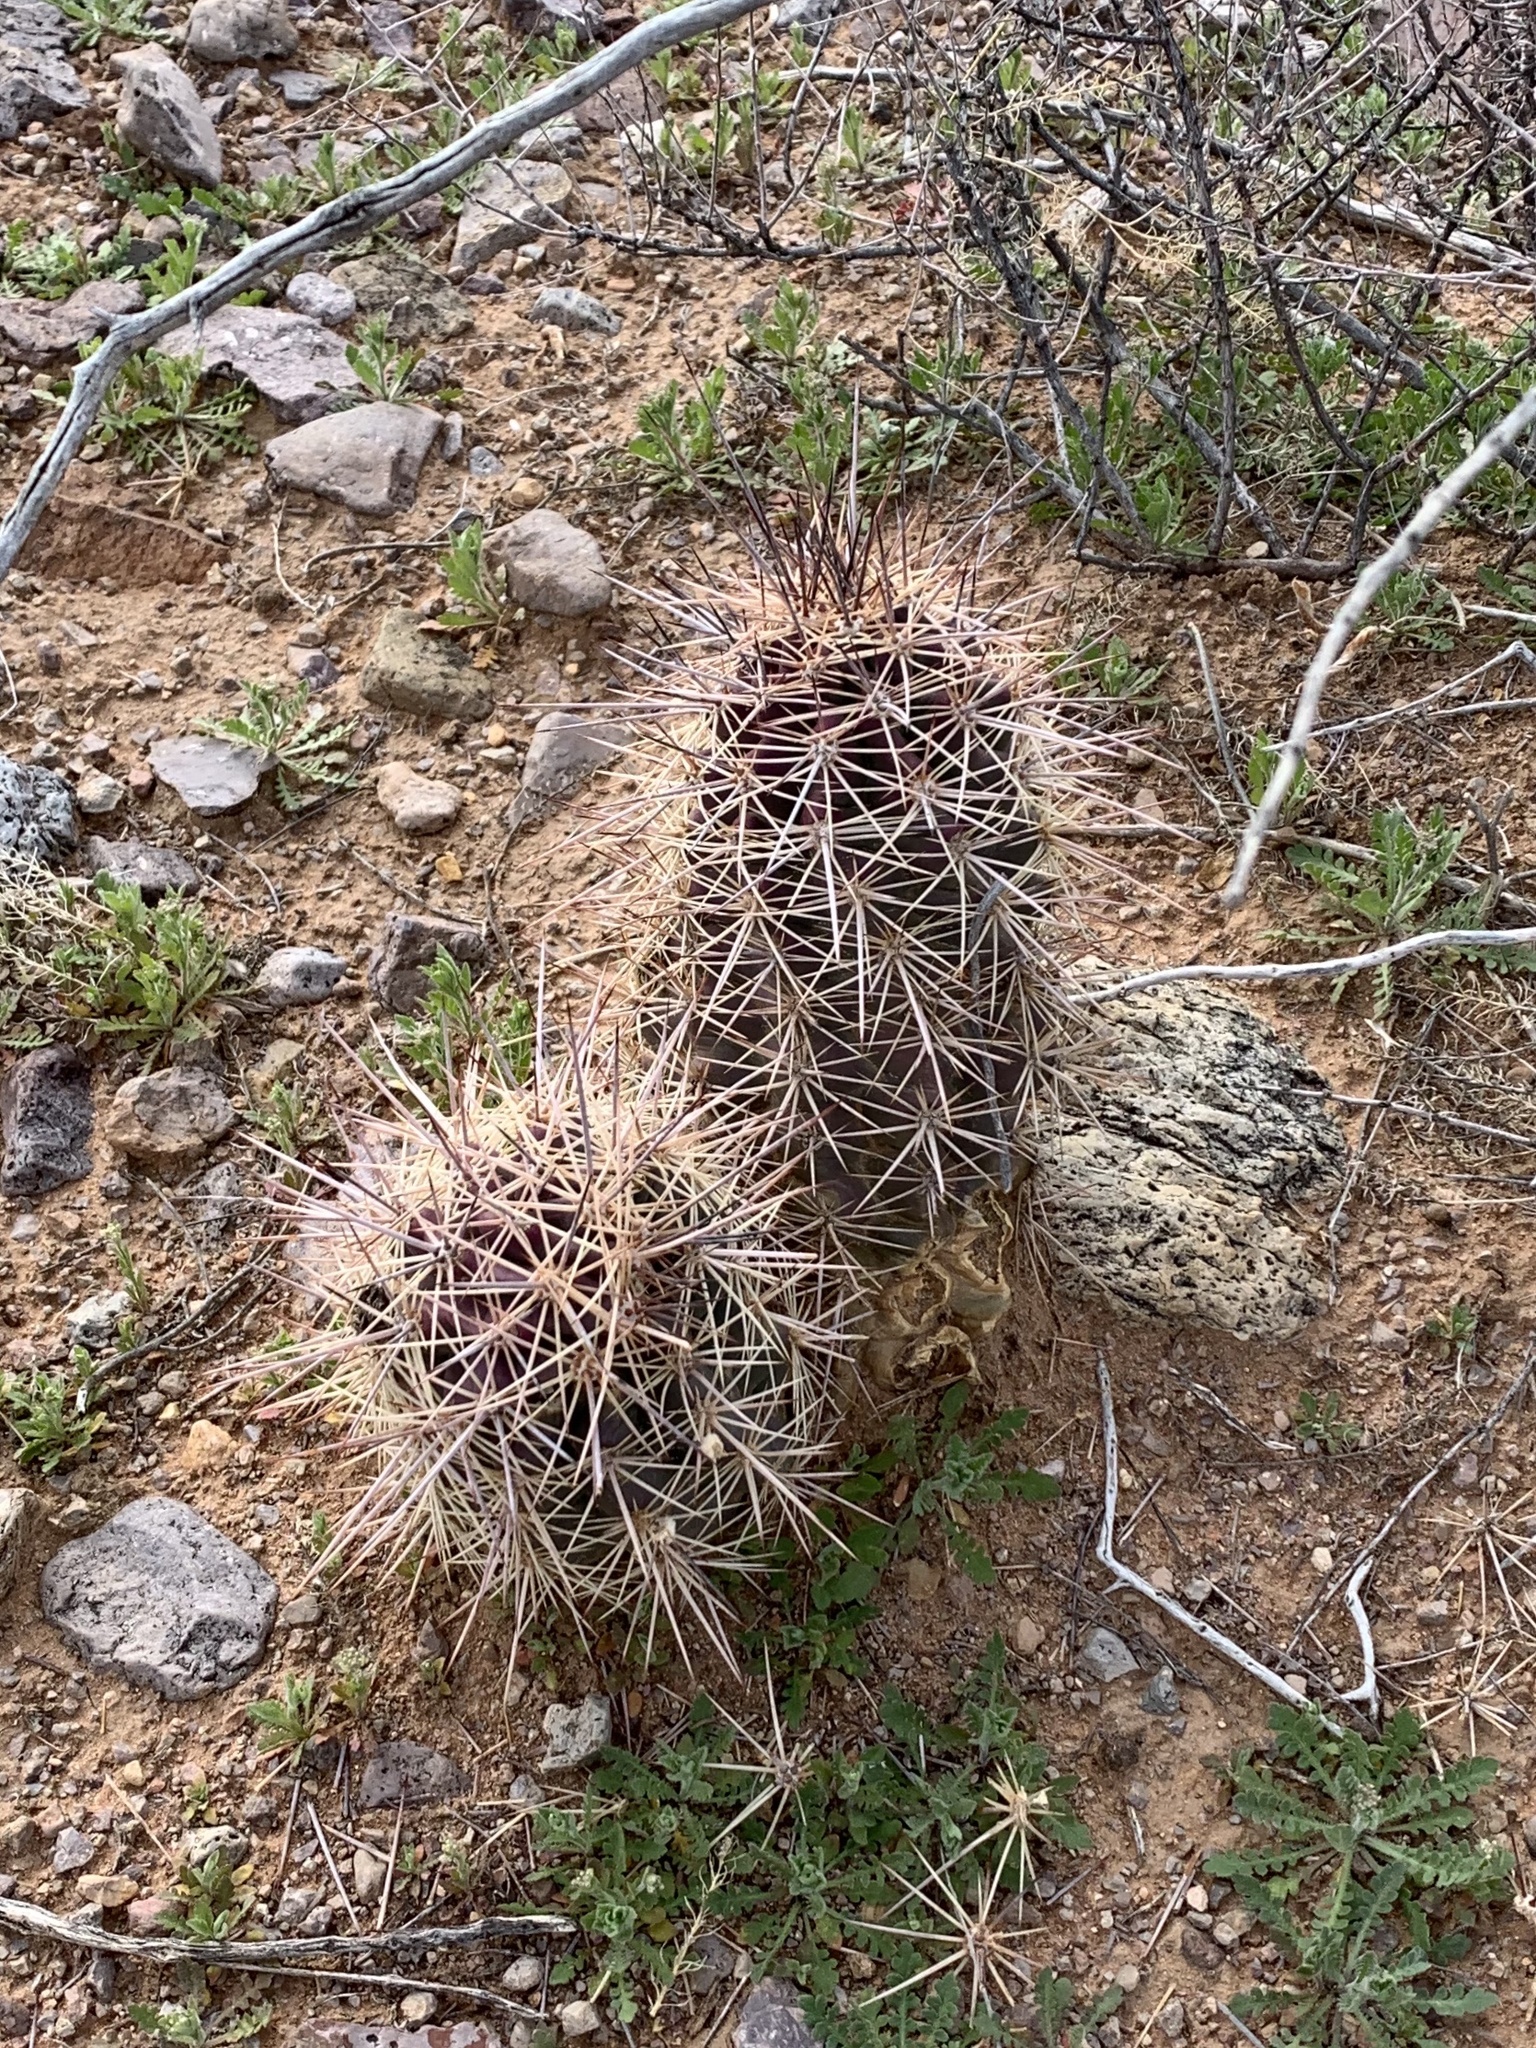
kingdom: Plantae
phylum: Tracheophyta
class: Magnoliopsida
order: Caryophyllales
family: Cactaceae
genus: Echinocereus
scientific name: Echinocereus coccineus
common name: Scarlet hedgehog cactus
